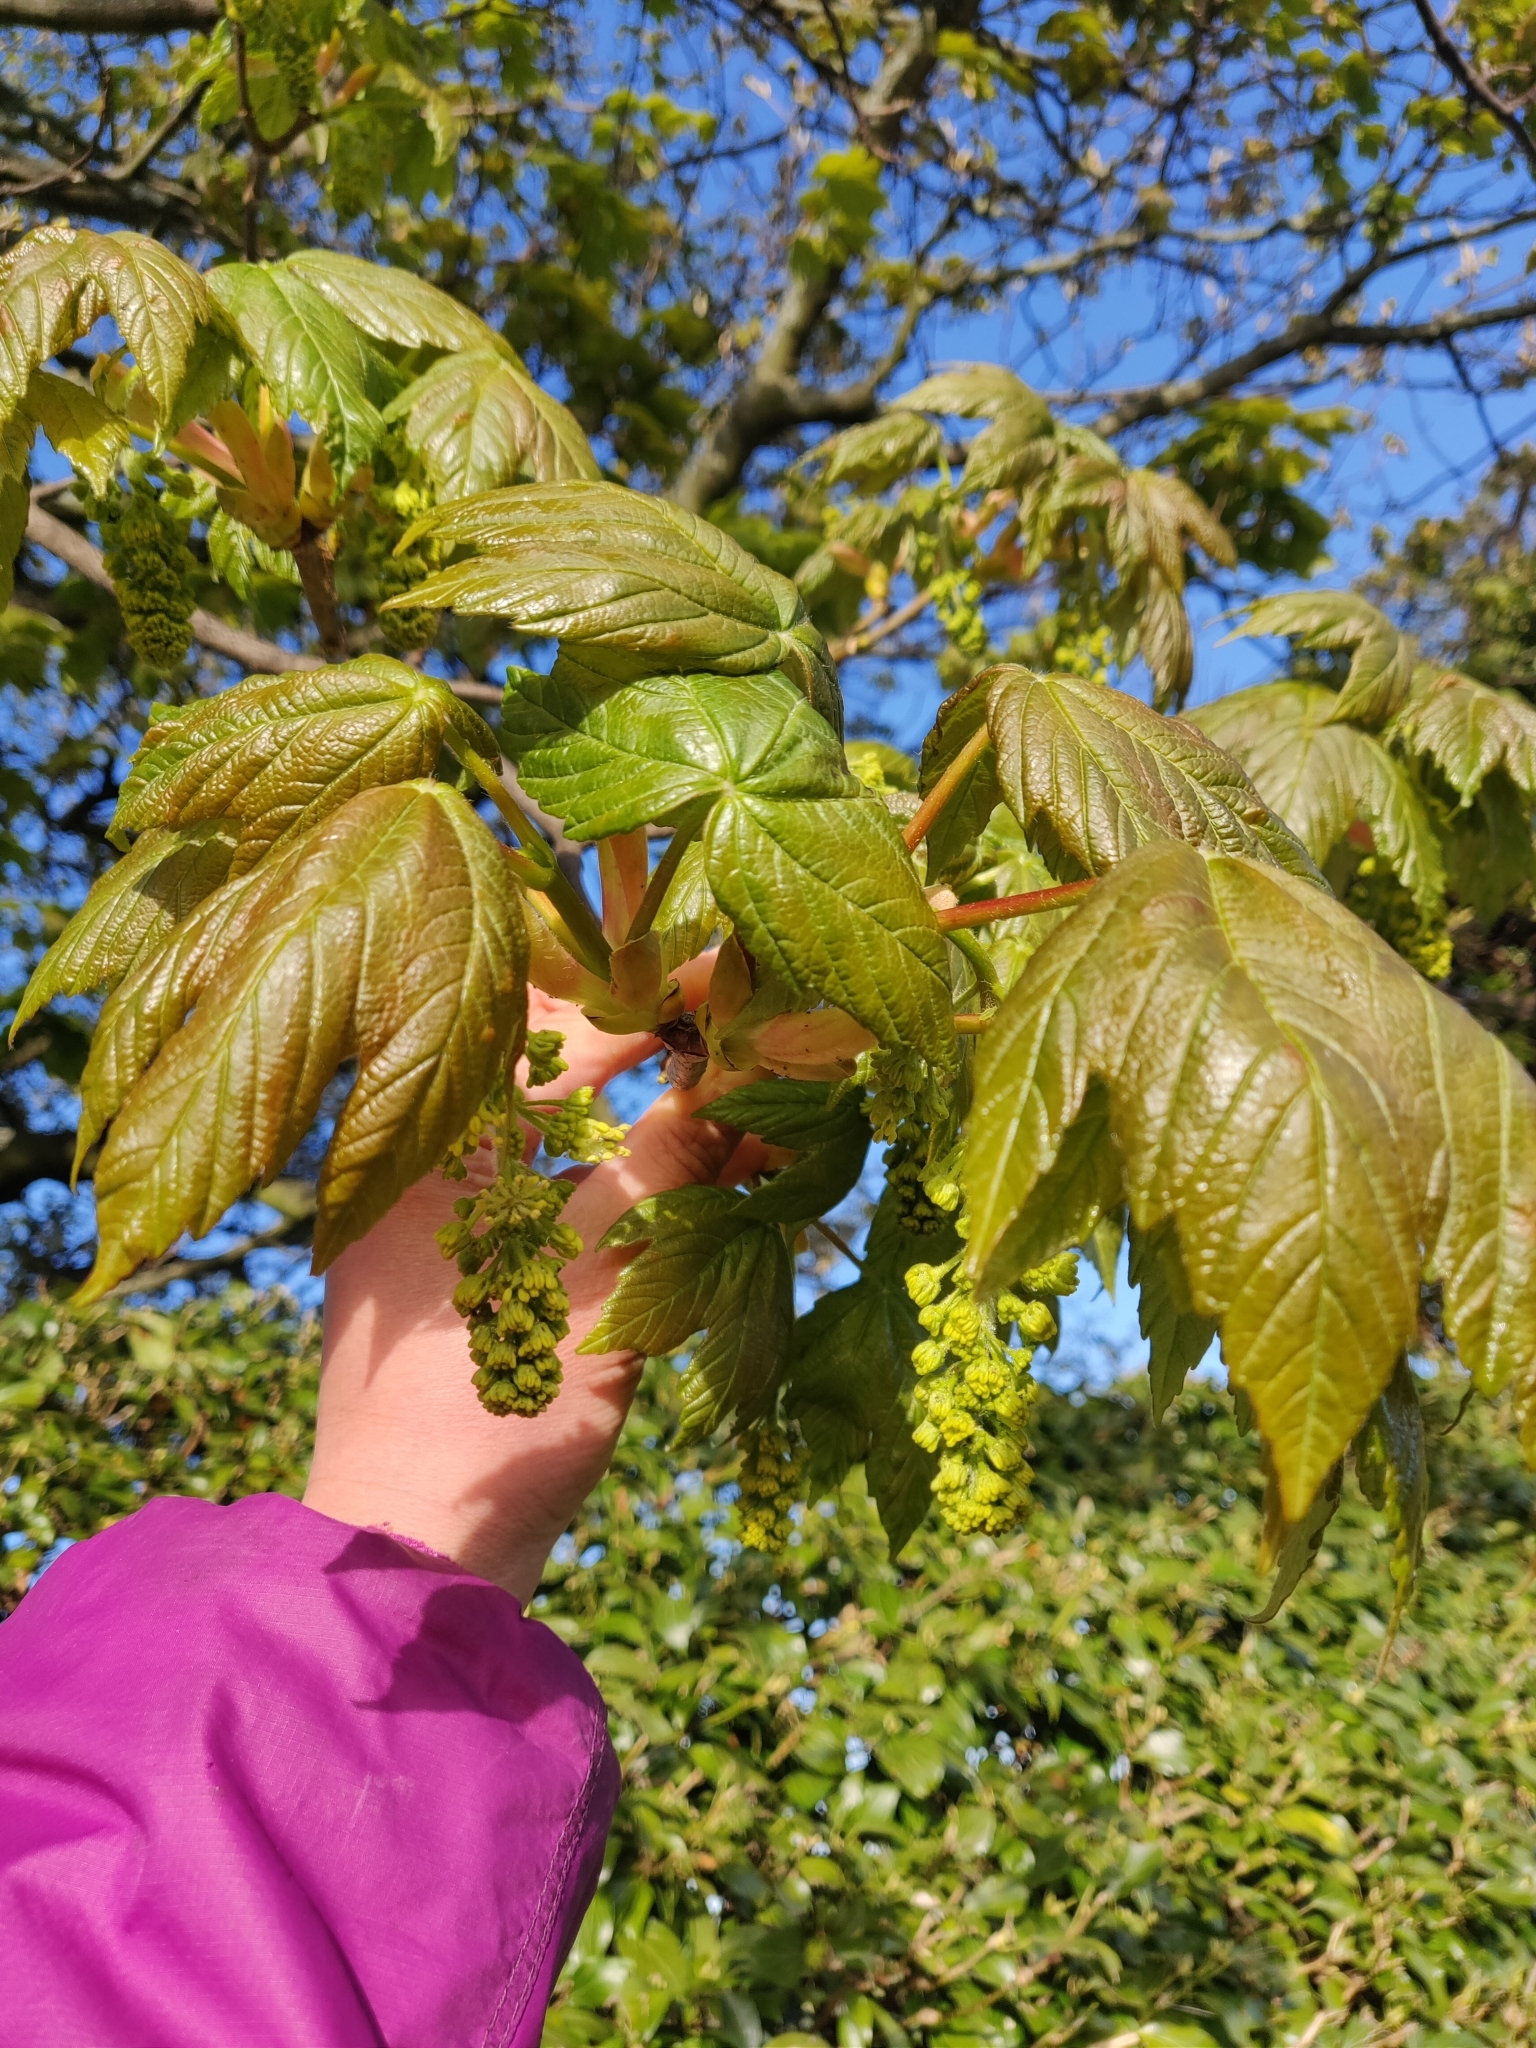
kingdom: Plantae
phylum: Tracheophyta
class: Magnoliopsida
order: Sapindales
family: Sapindaceae
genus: Acer
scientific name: Acer pseudoplatanus
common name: Sycamore
